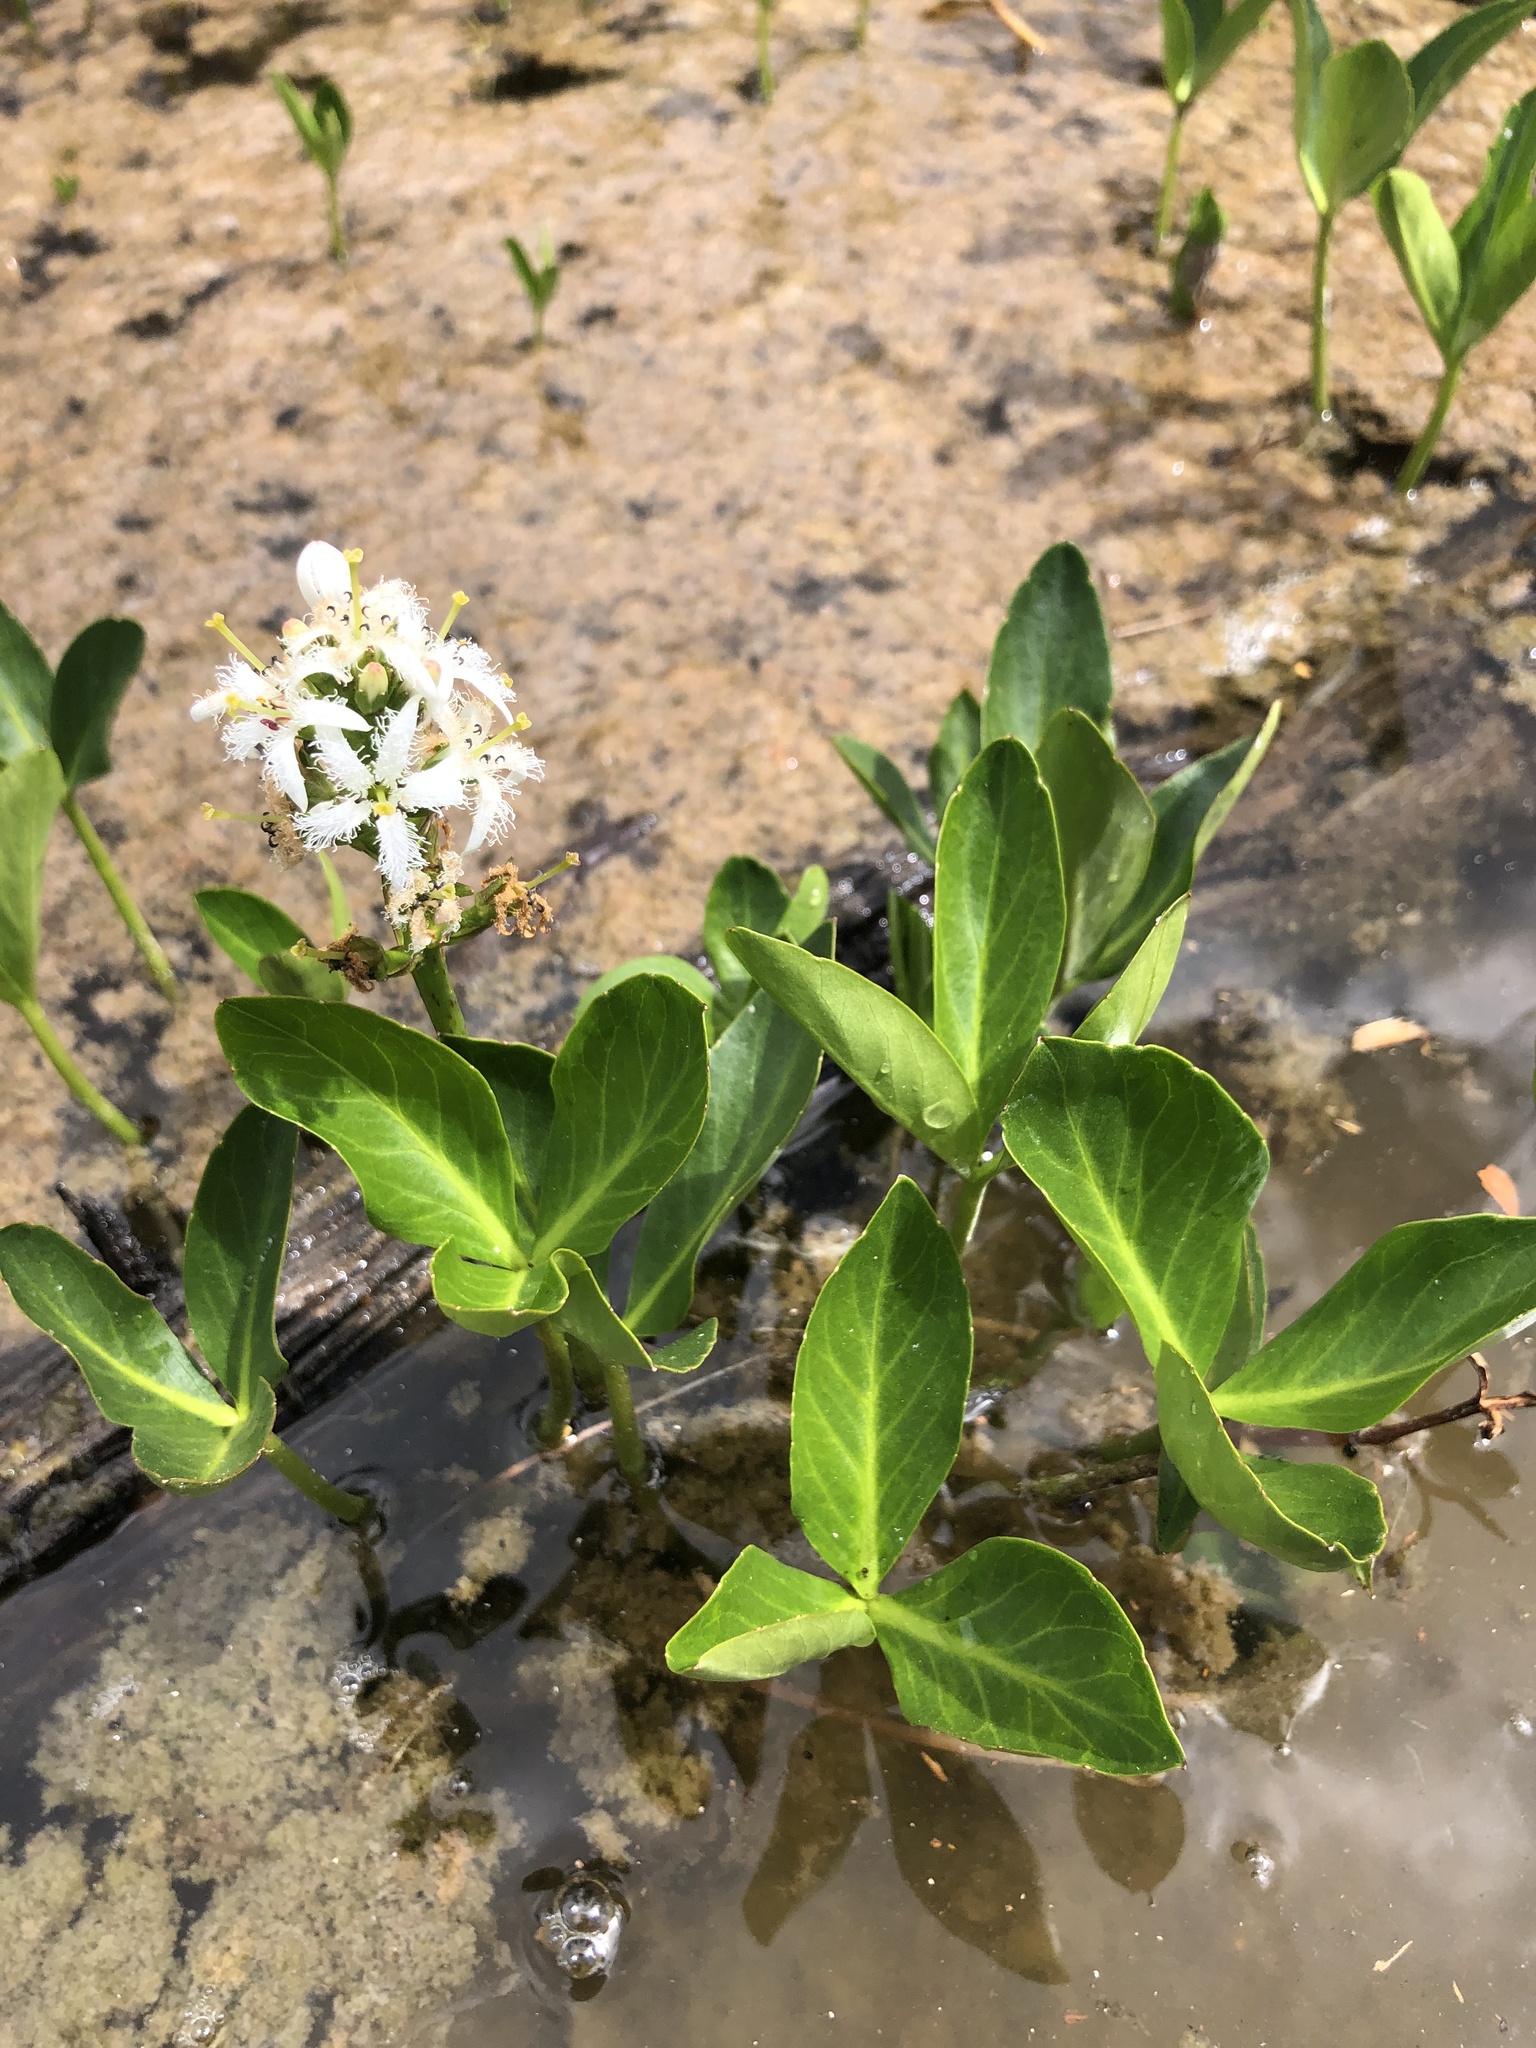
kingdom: Plantae
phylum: Tracheophyta
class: Magnoliopsida
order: Asterales
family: Menyanthaceae
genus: Menyanthes
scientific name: Menyanthes trifoliata
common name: Bogbean
